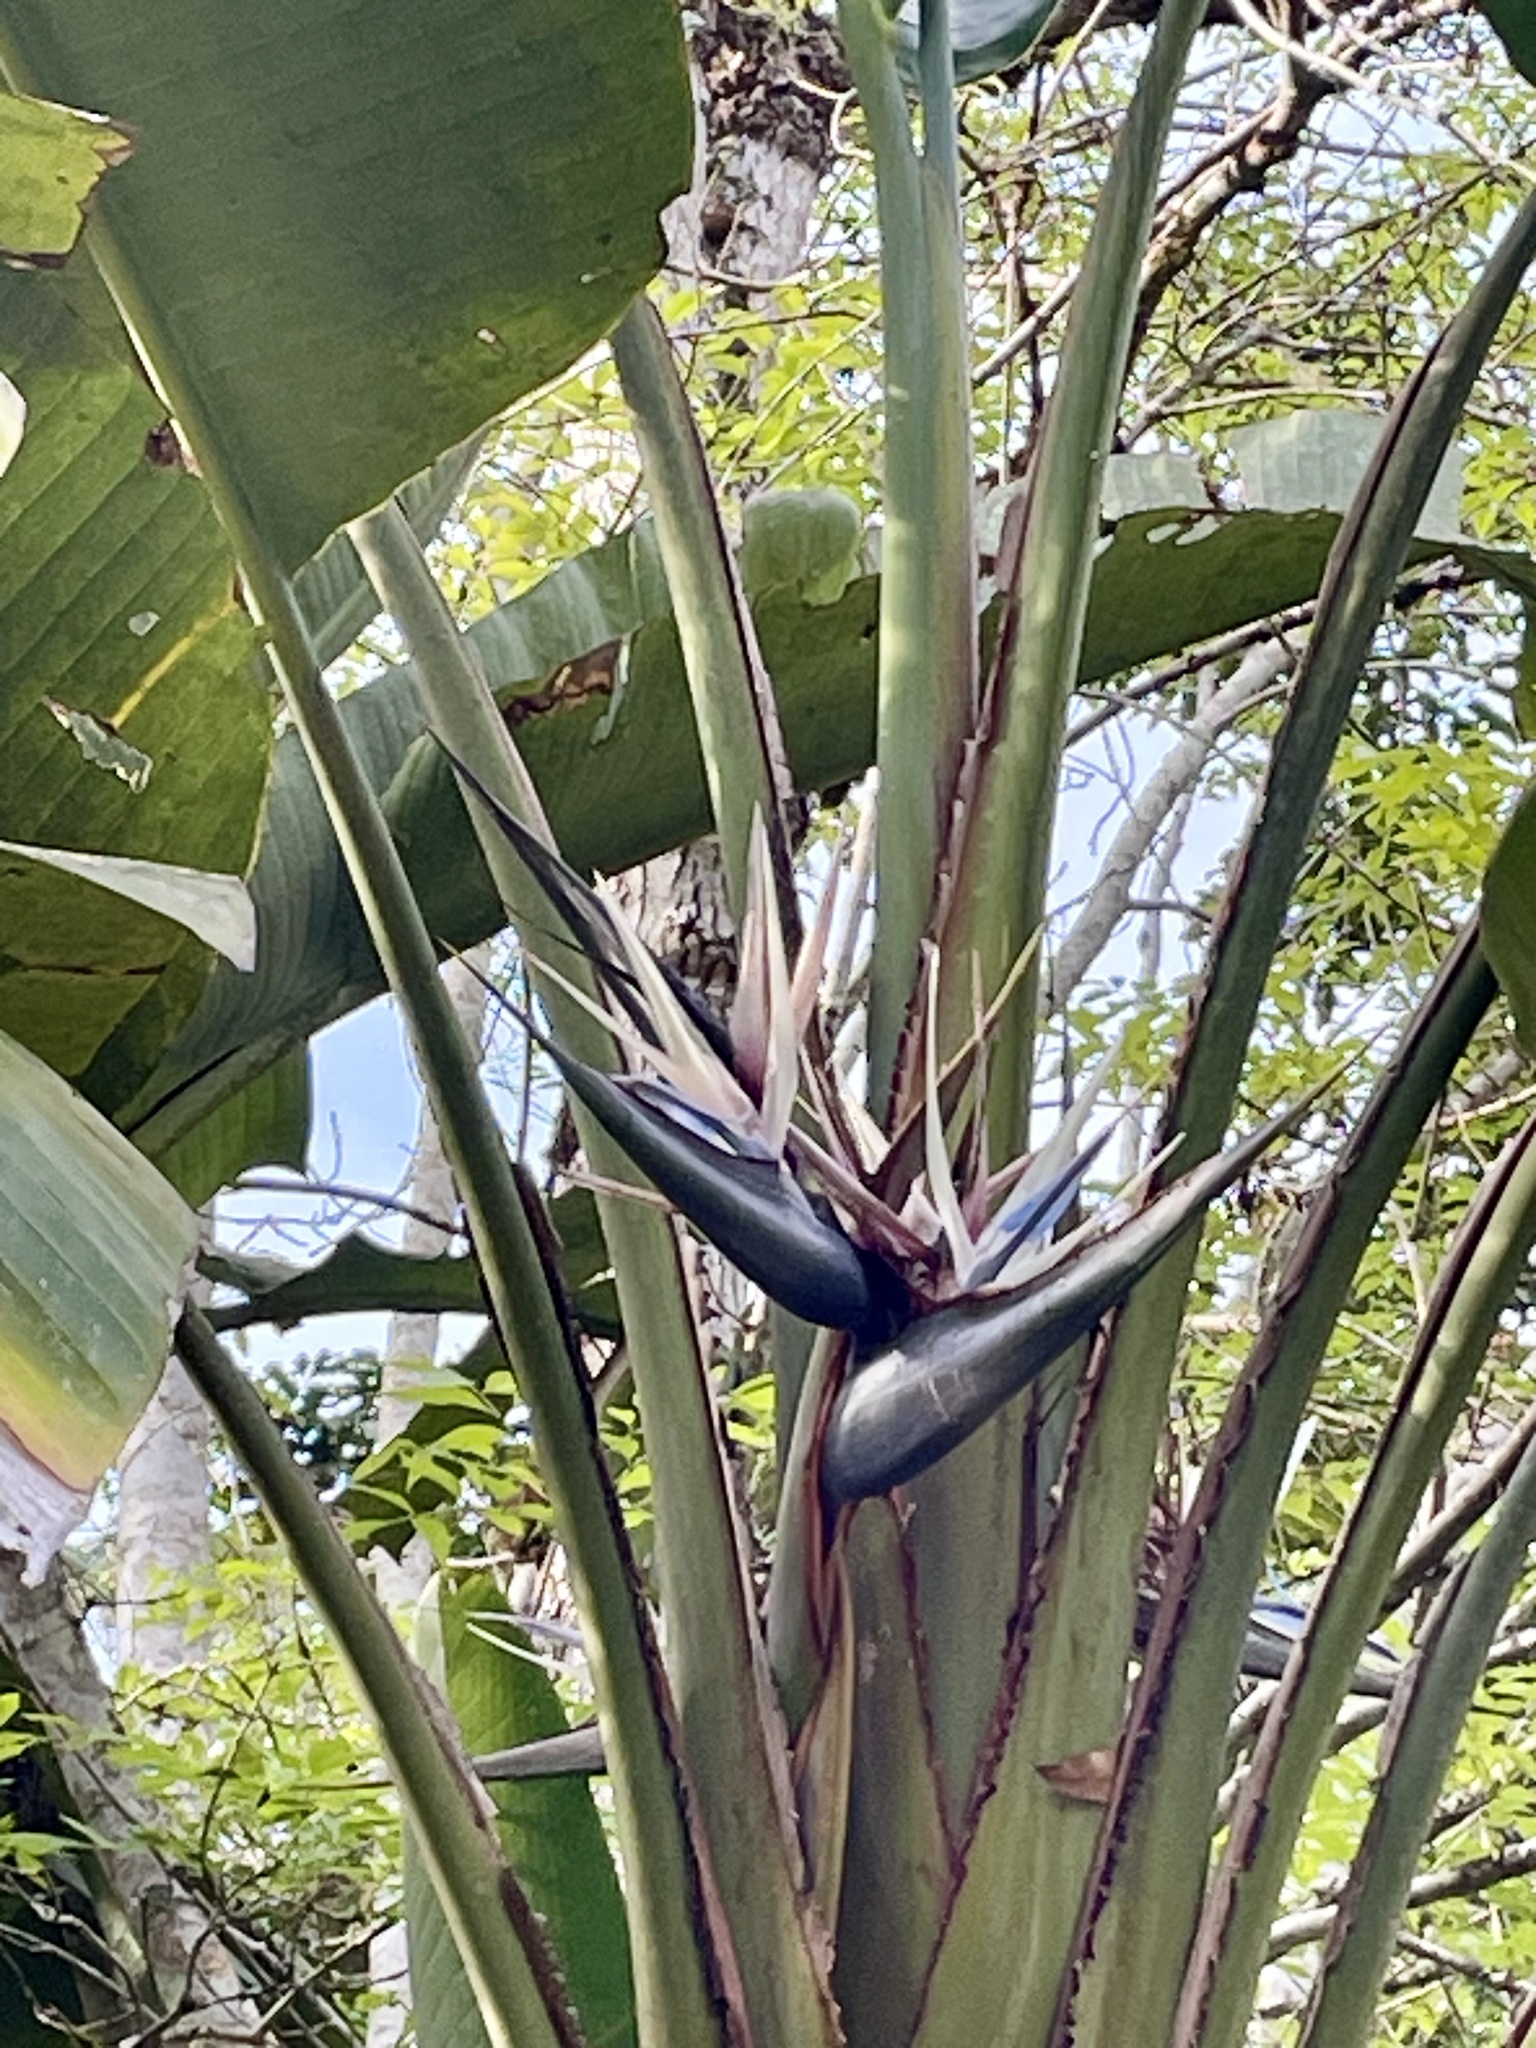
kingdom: Plantae
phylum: Tracheophyta
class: Liliopsida
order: Zingiberales
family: Strelitziaceae
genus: Ravenala
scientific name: Ravenala madagascariensis
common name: Traveler's-palm
